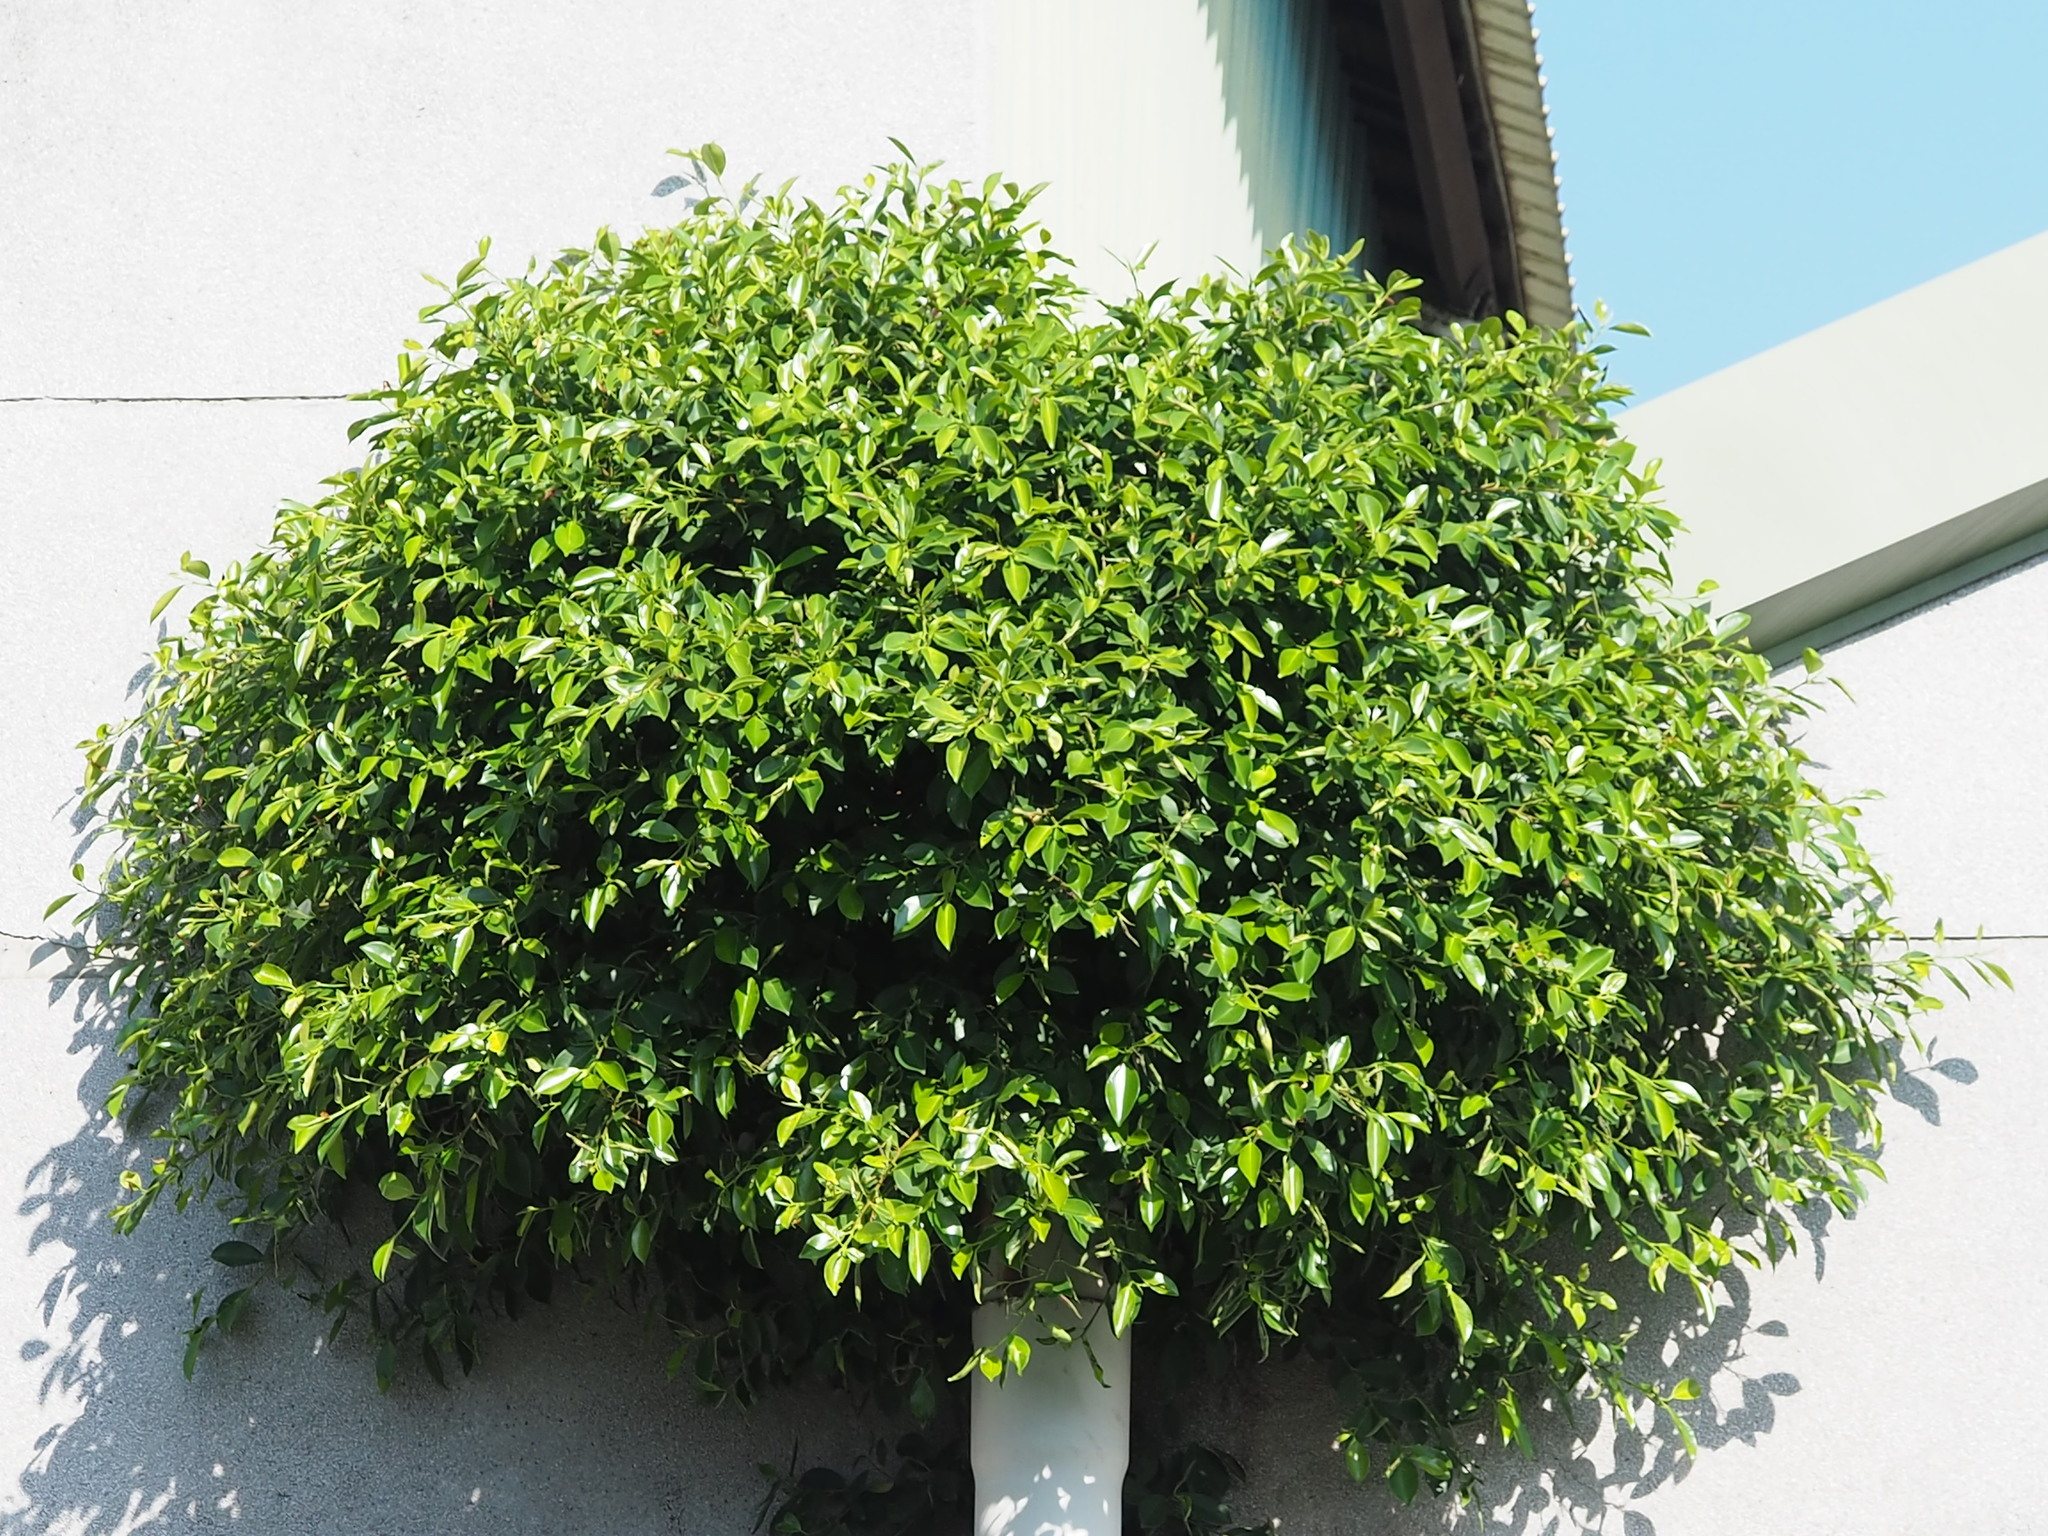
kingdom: Plantae
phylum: Tracheophyta
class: Magnoliopsida
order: Rosales
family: Moraceae
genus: Ficus
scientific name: Ficus microcarpa
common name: Chinese banyan
